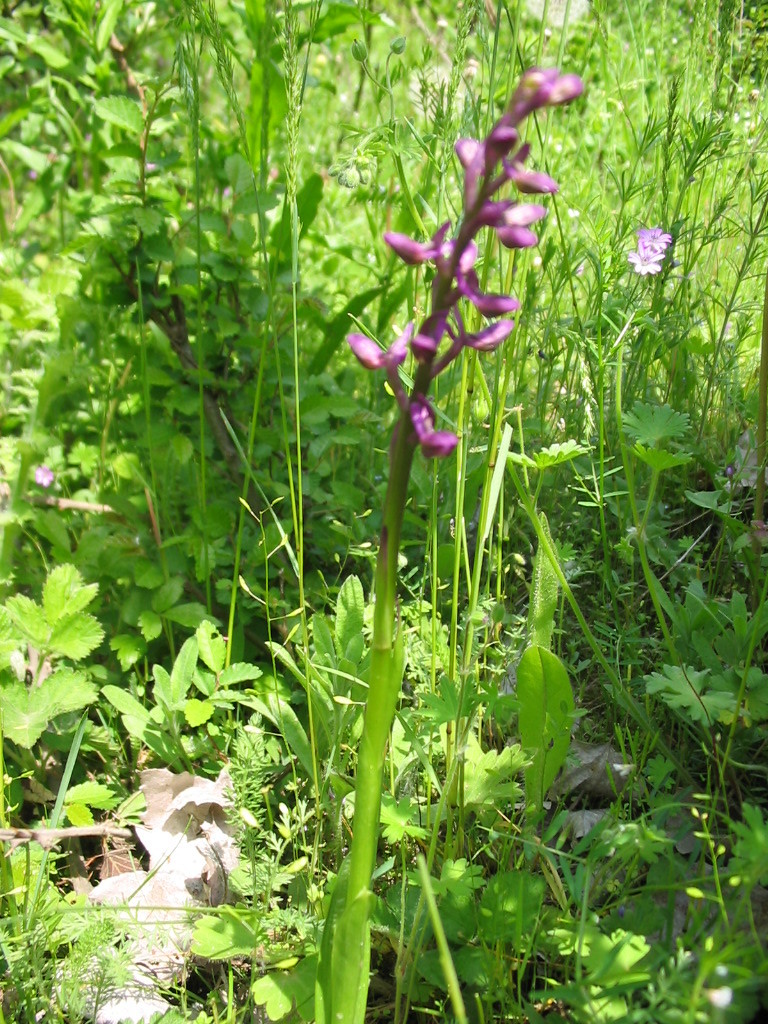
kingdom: Plantae
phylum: Tracheophyta
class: Liliopsida
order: Asparagales
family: Orchidaceae
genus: Orchis
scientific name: Orchis mascula
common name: Early-purple orchid
